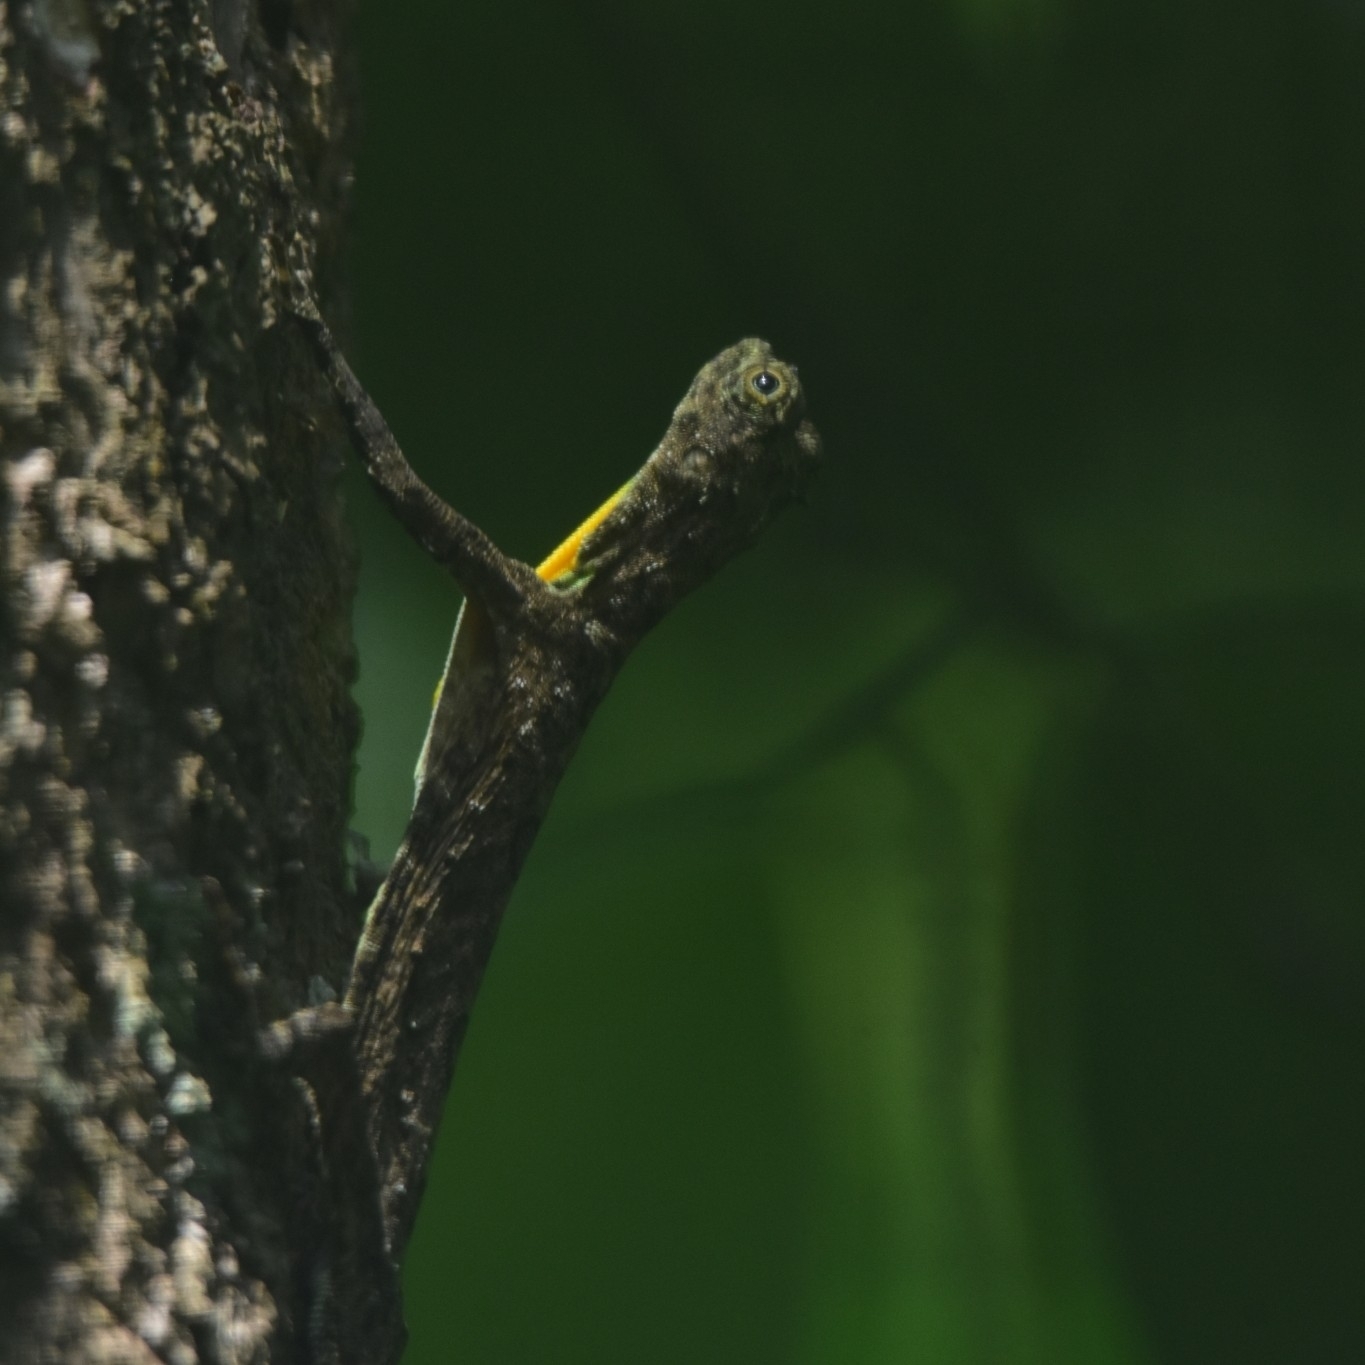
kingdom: Animalia
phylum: Chordata
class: Squamata
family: Agamidae
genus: Draco
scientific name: Draco dussumieri
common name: Southern flying lizard
